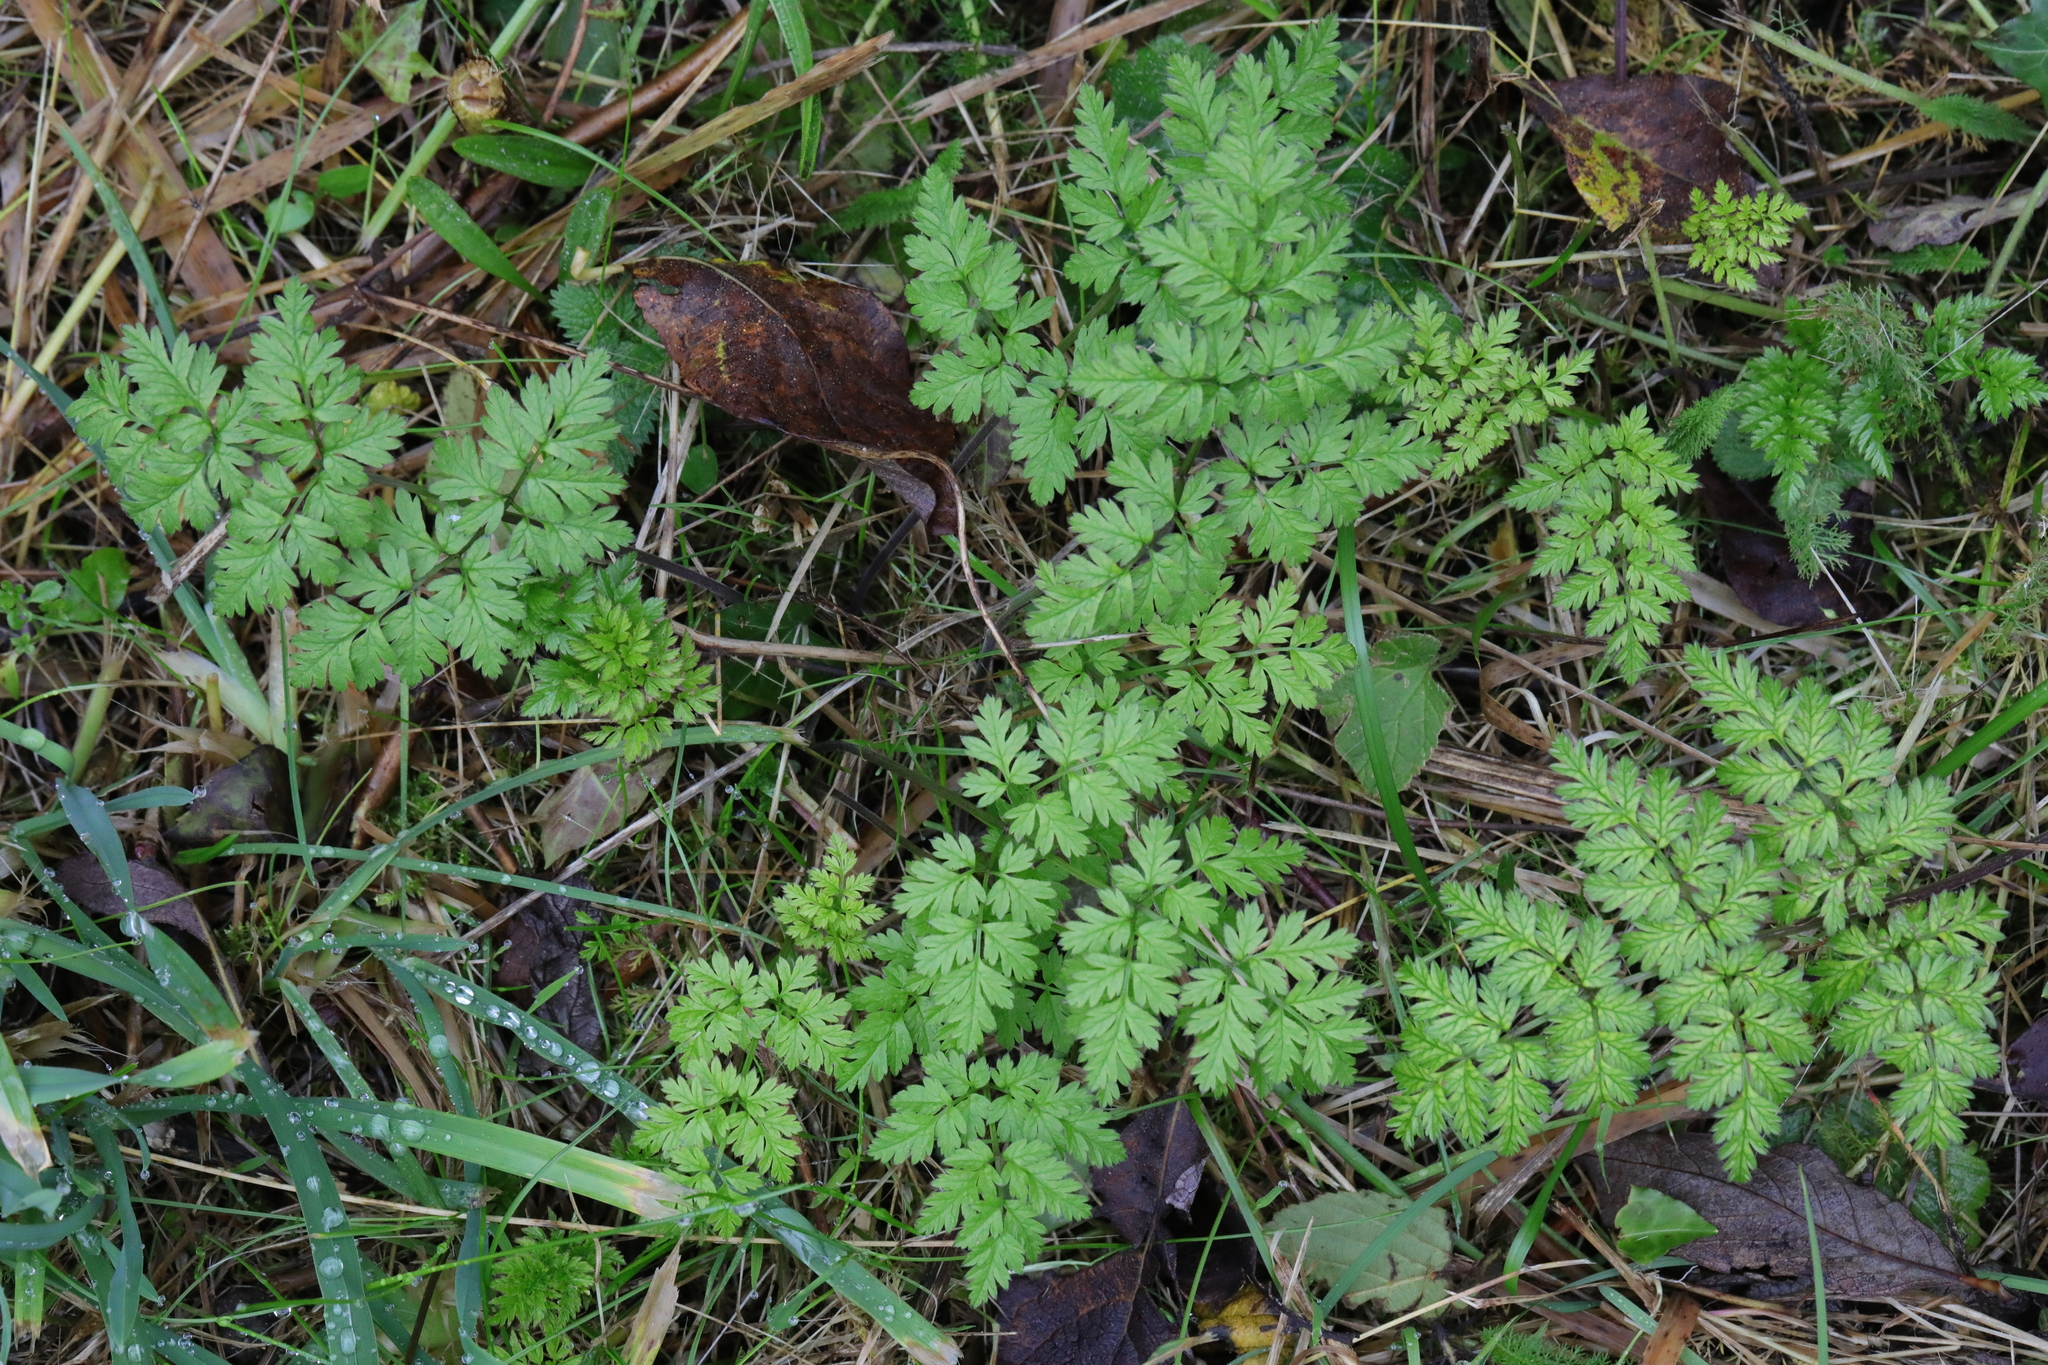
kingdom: Plantae
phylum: Tracheophyta
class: Magnoliopsida
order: Apiales
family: Apiaceae
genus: Anthriscus
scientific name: Anthriscus sylvestris
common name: Cow parsley
